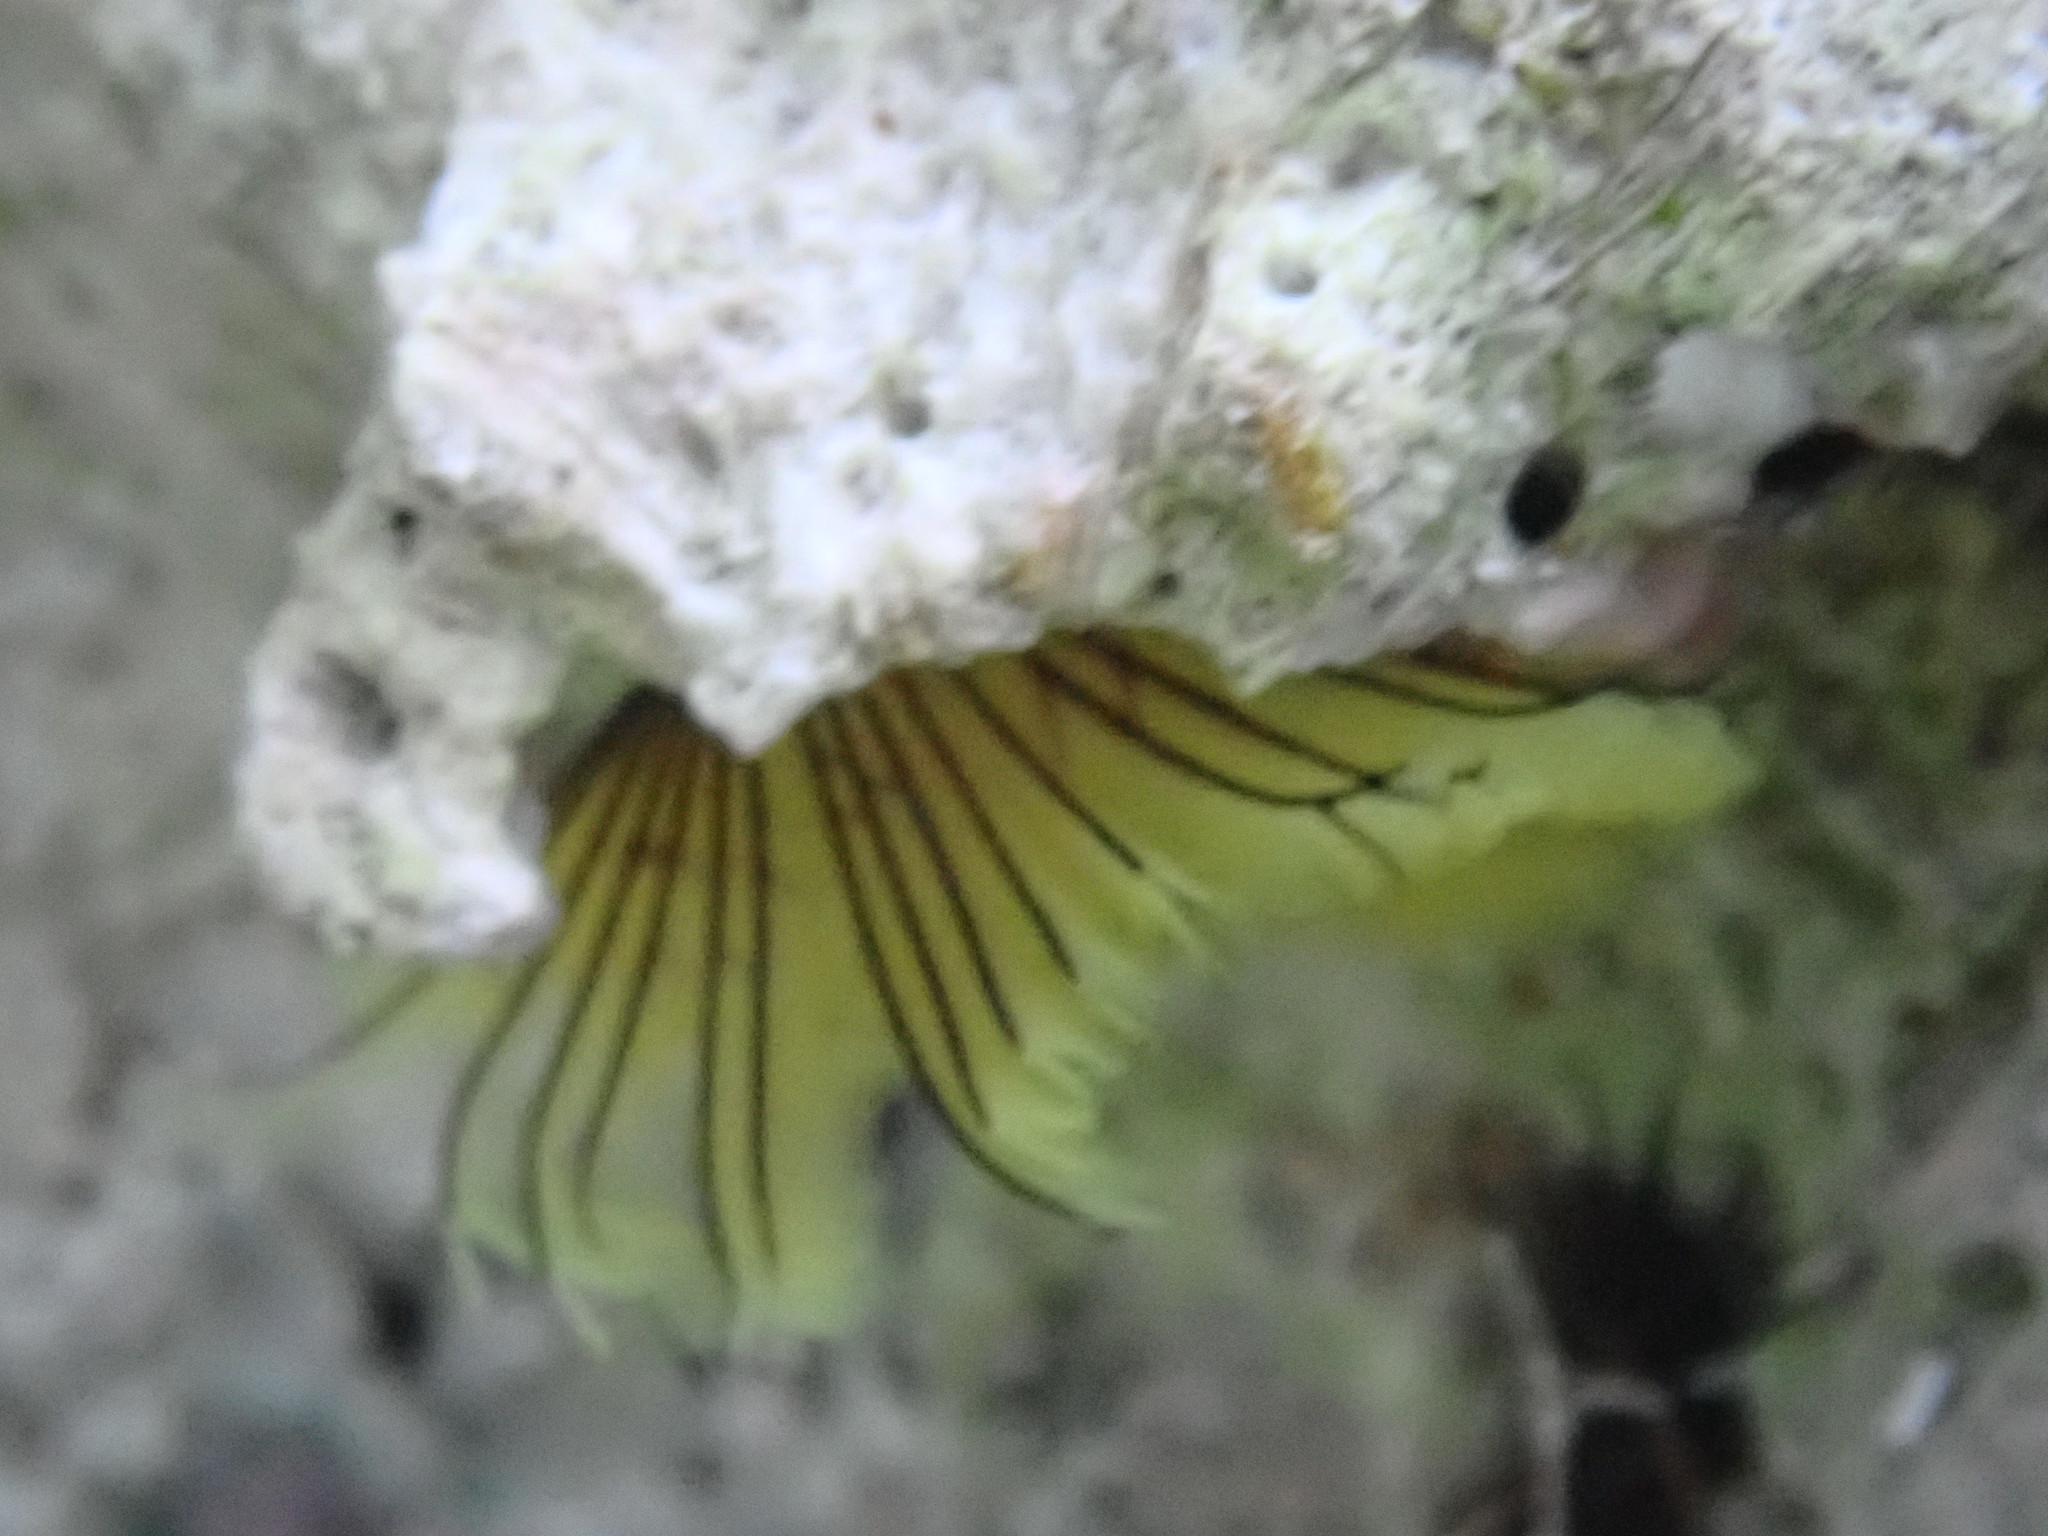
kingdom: Animalia
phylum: Annelida
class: Polychaeta
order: Sabellida
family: Sabellidae
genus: Notaulax
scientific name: Notaulax occidentalis
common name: Yellow fanworm
